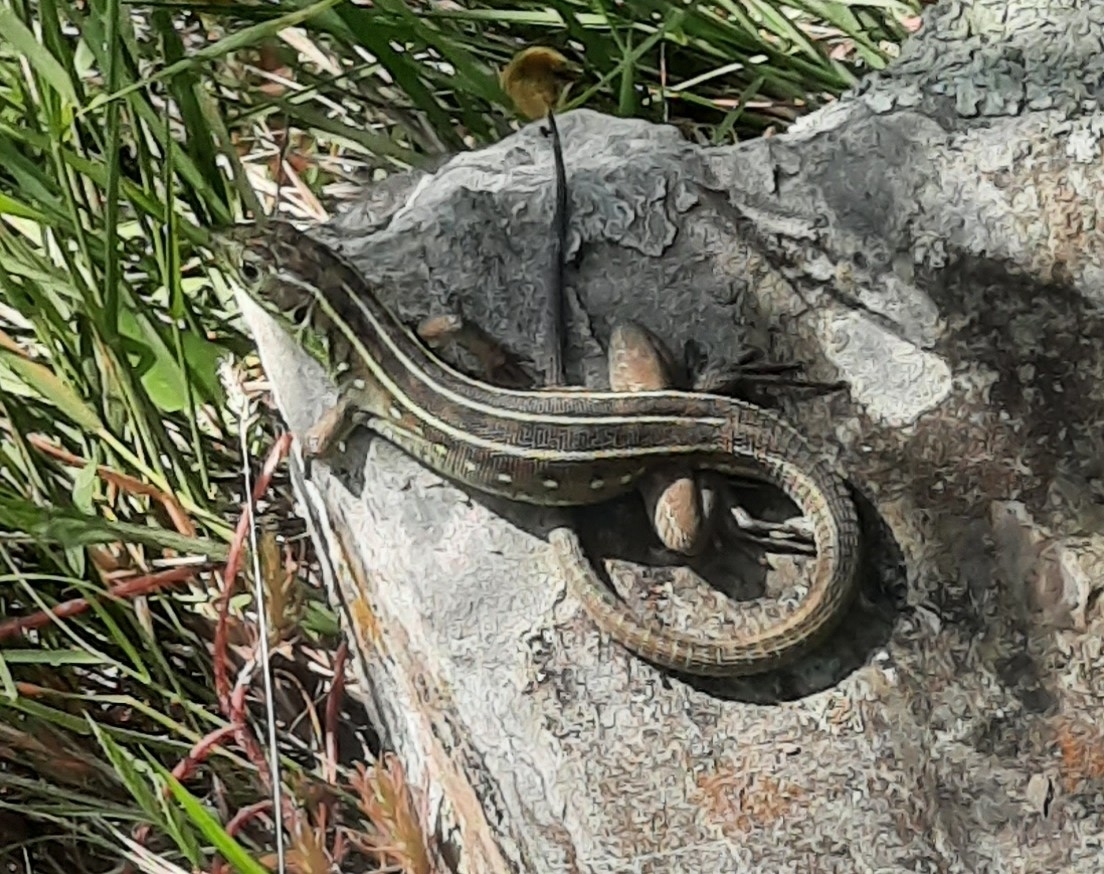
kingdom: Animalia
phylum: Chordata
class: Squamata
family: Lacertidae
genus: Lacerta
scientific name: Lacerta trilineata
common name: Balkan green lizard
